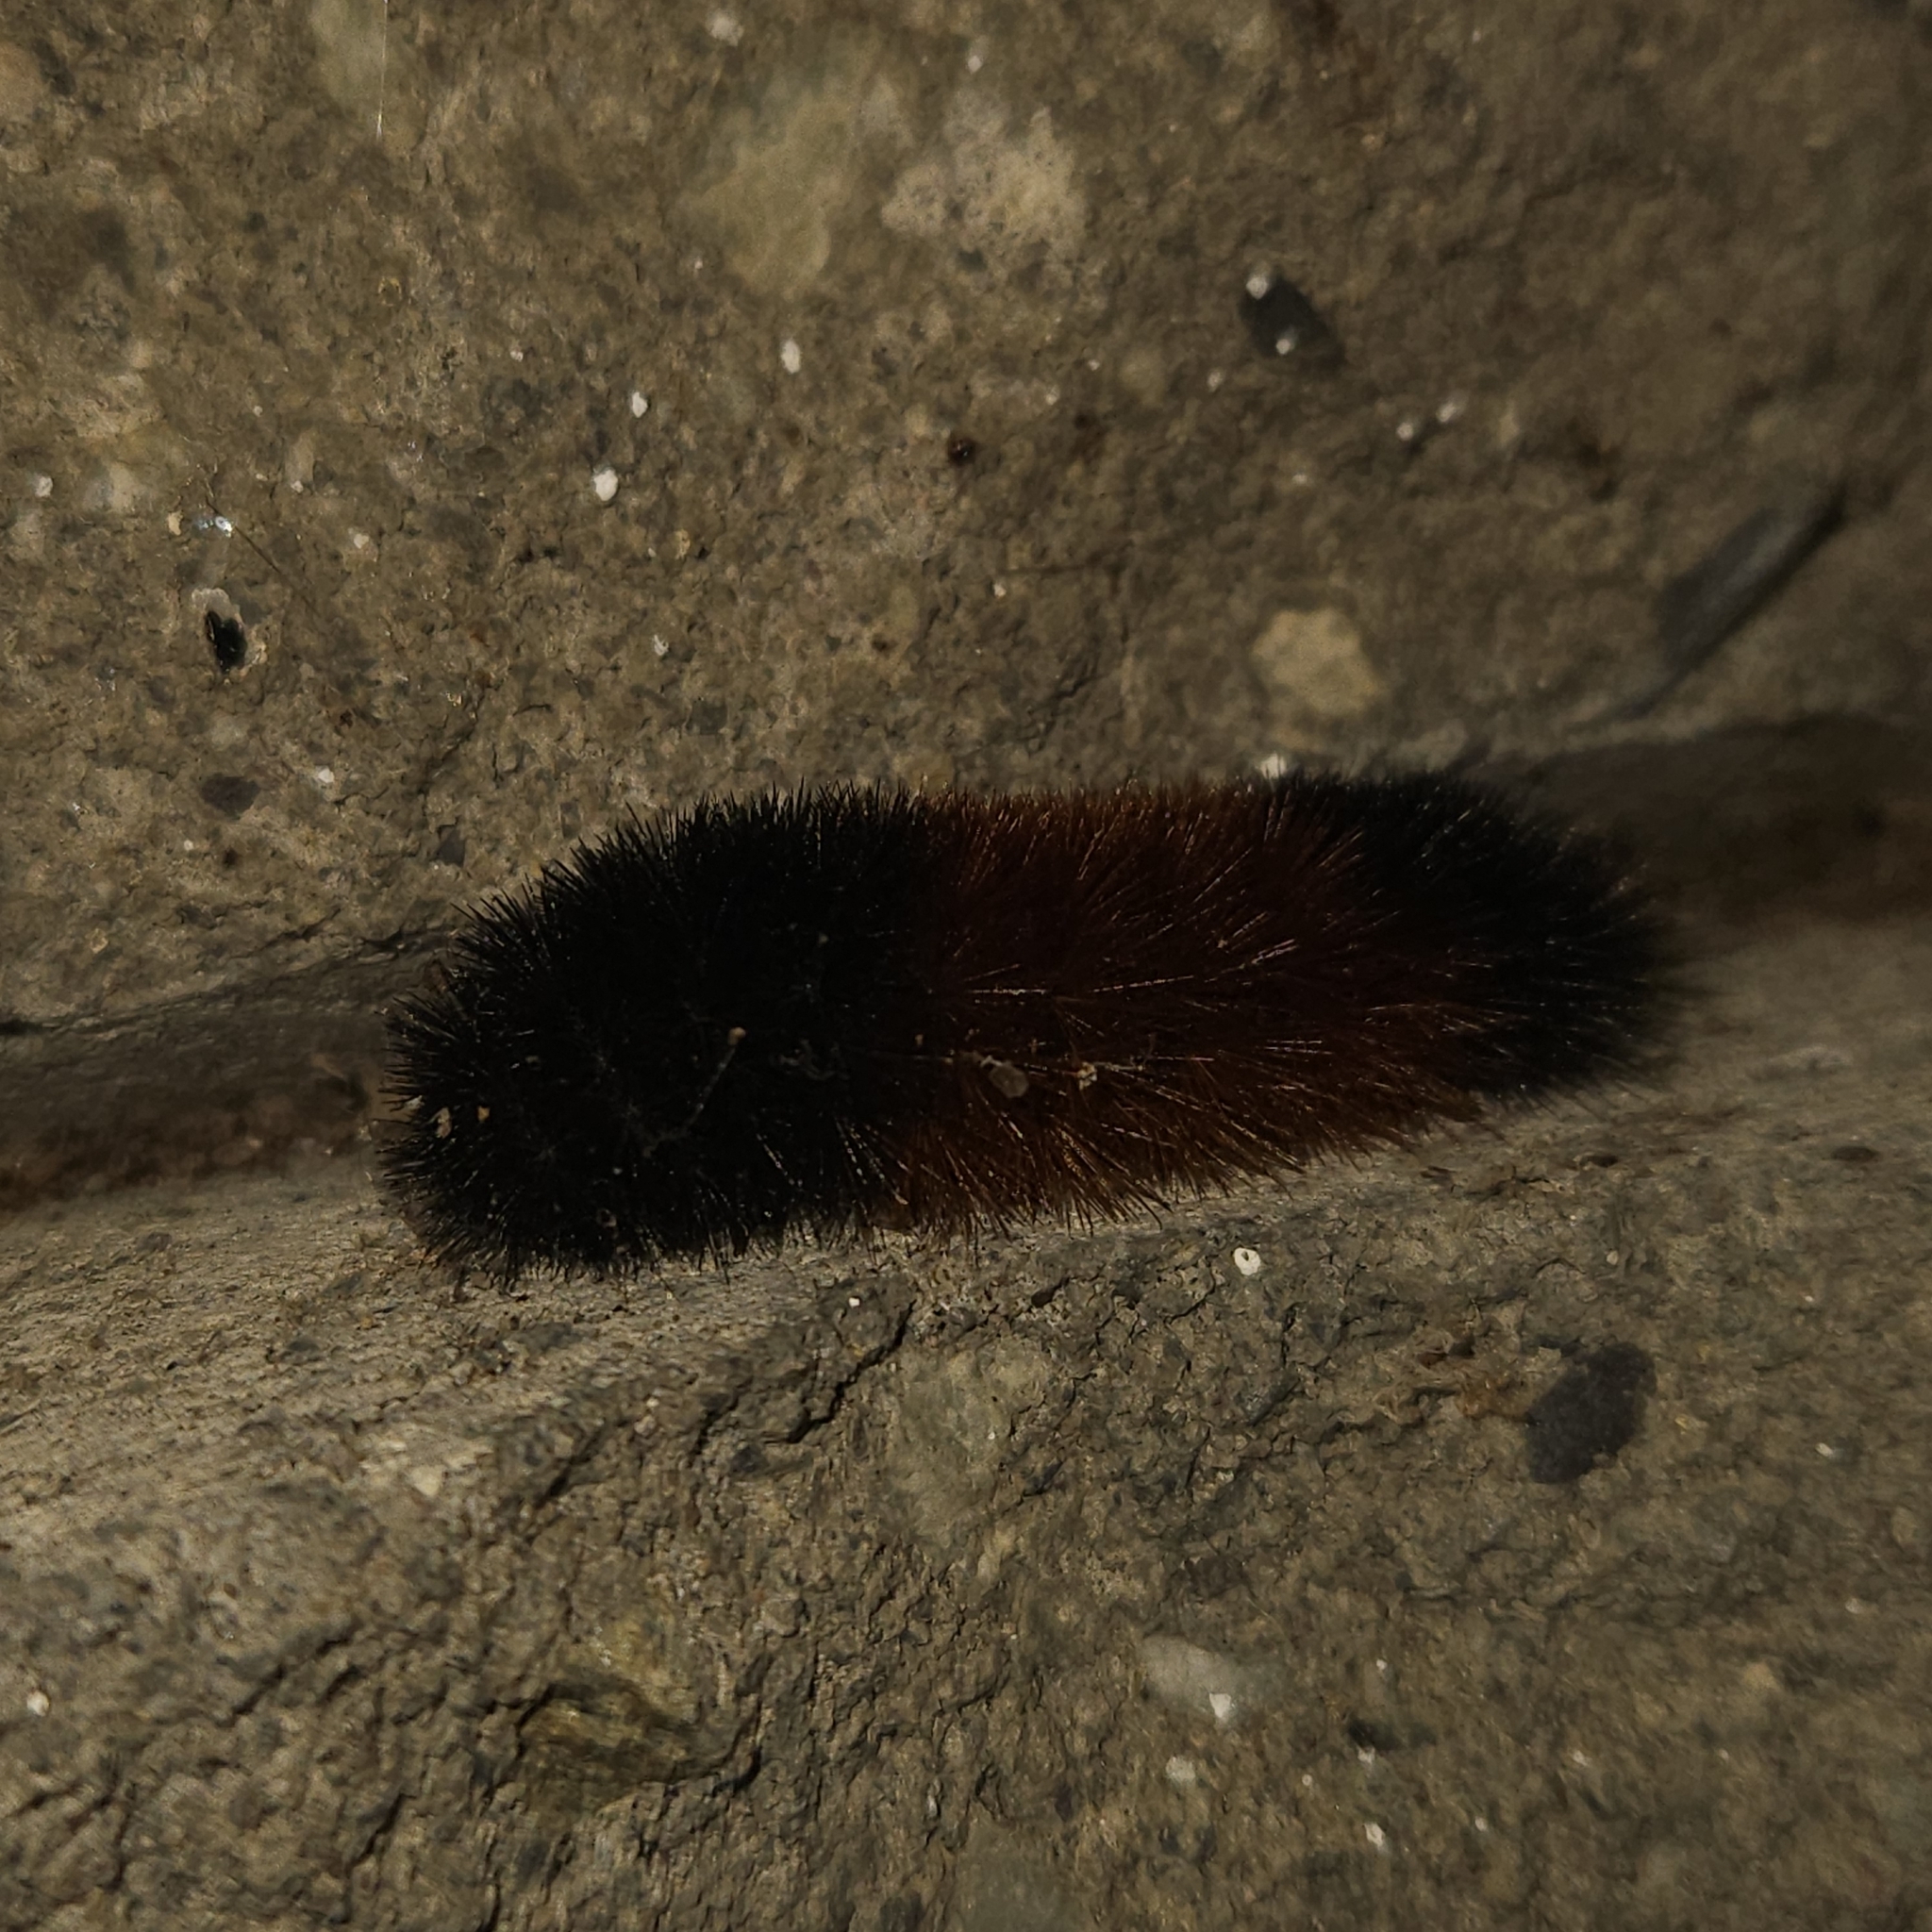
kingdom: Animalia
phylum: Arthropoda
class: Insecta
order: Lepidoptera
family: Erebidae
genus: Pyrrharctia
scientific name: Pyrrharctia isabella
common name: Isabella tiger moth
